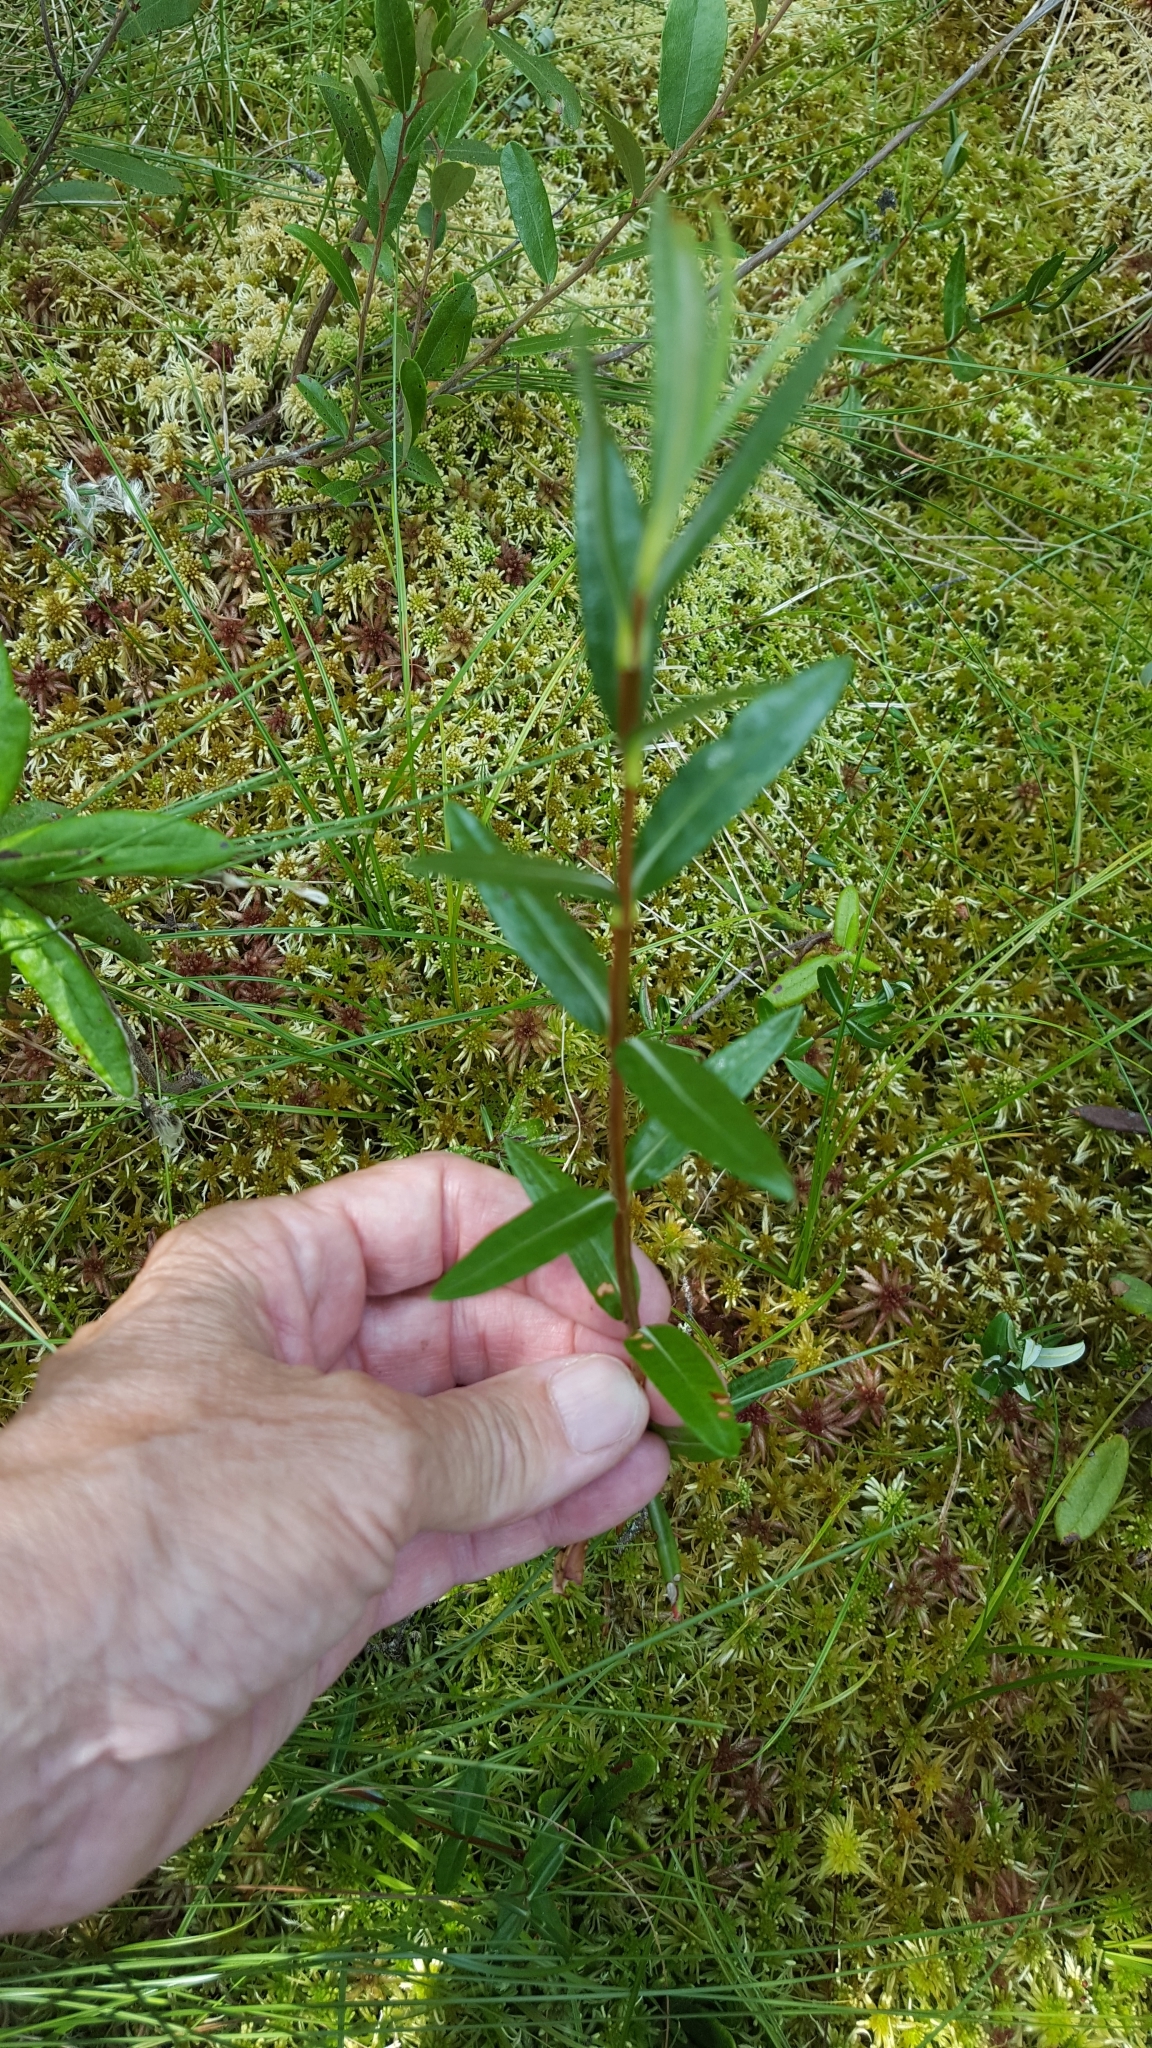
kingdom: Plantae
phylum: Tracheophyta
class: Magnoliopsida
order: Ericales
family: Ericaceae
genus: Kalmia
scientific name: Kalmia polifolia
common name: Bog-laurel
